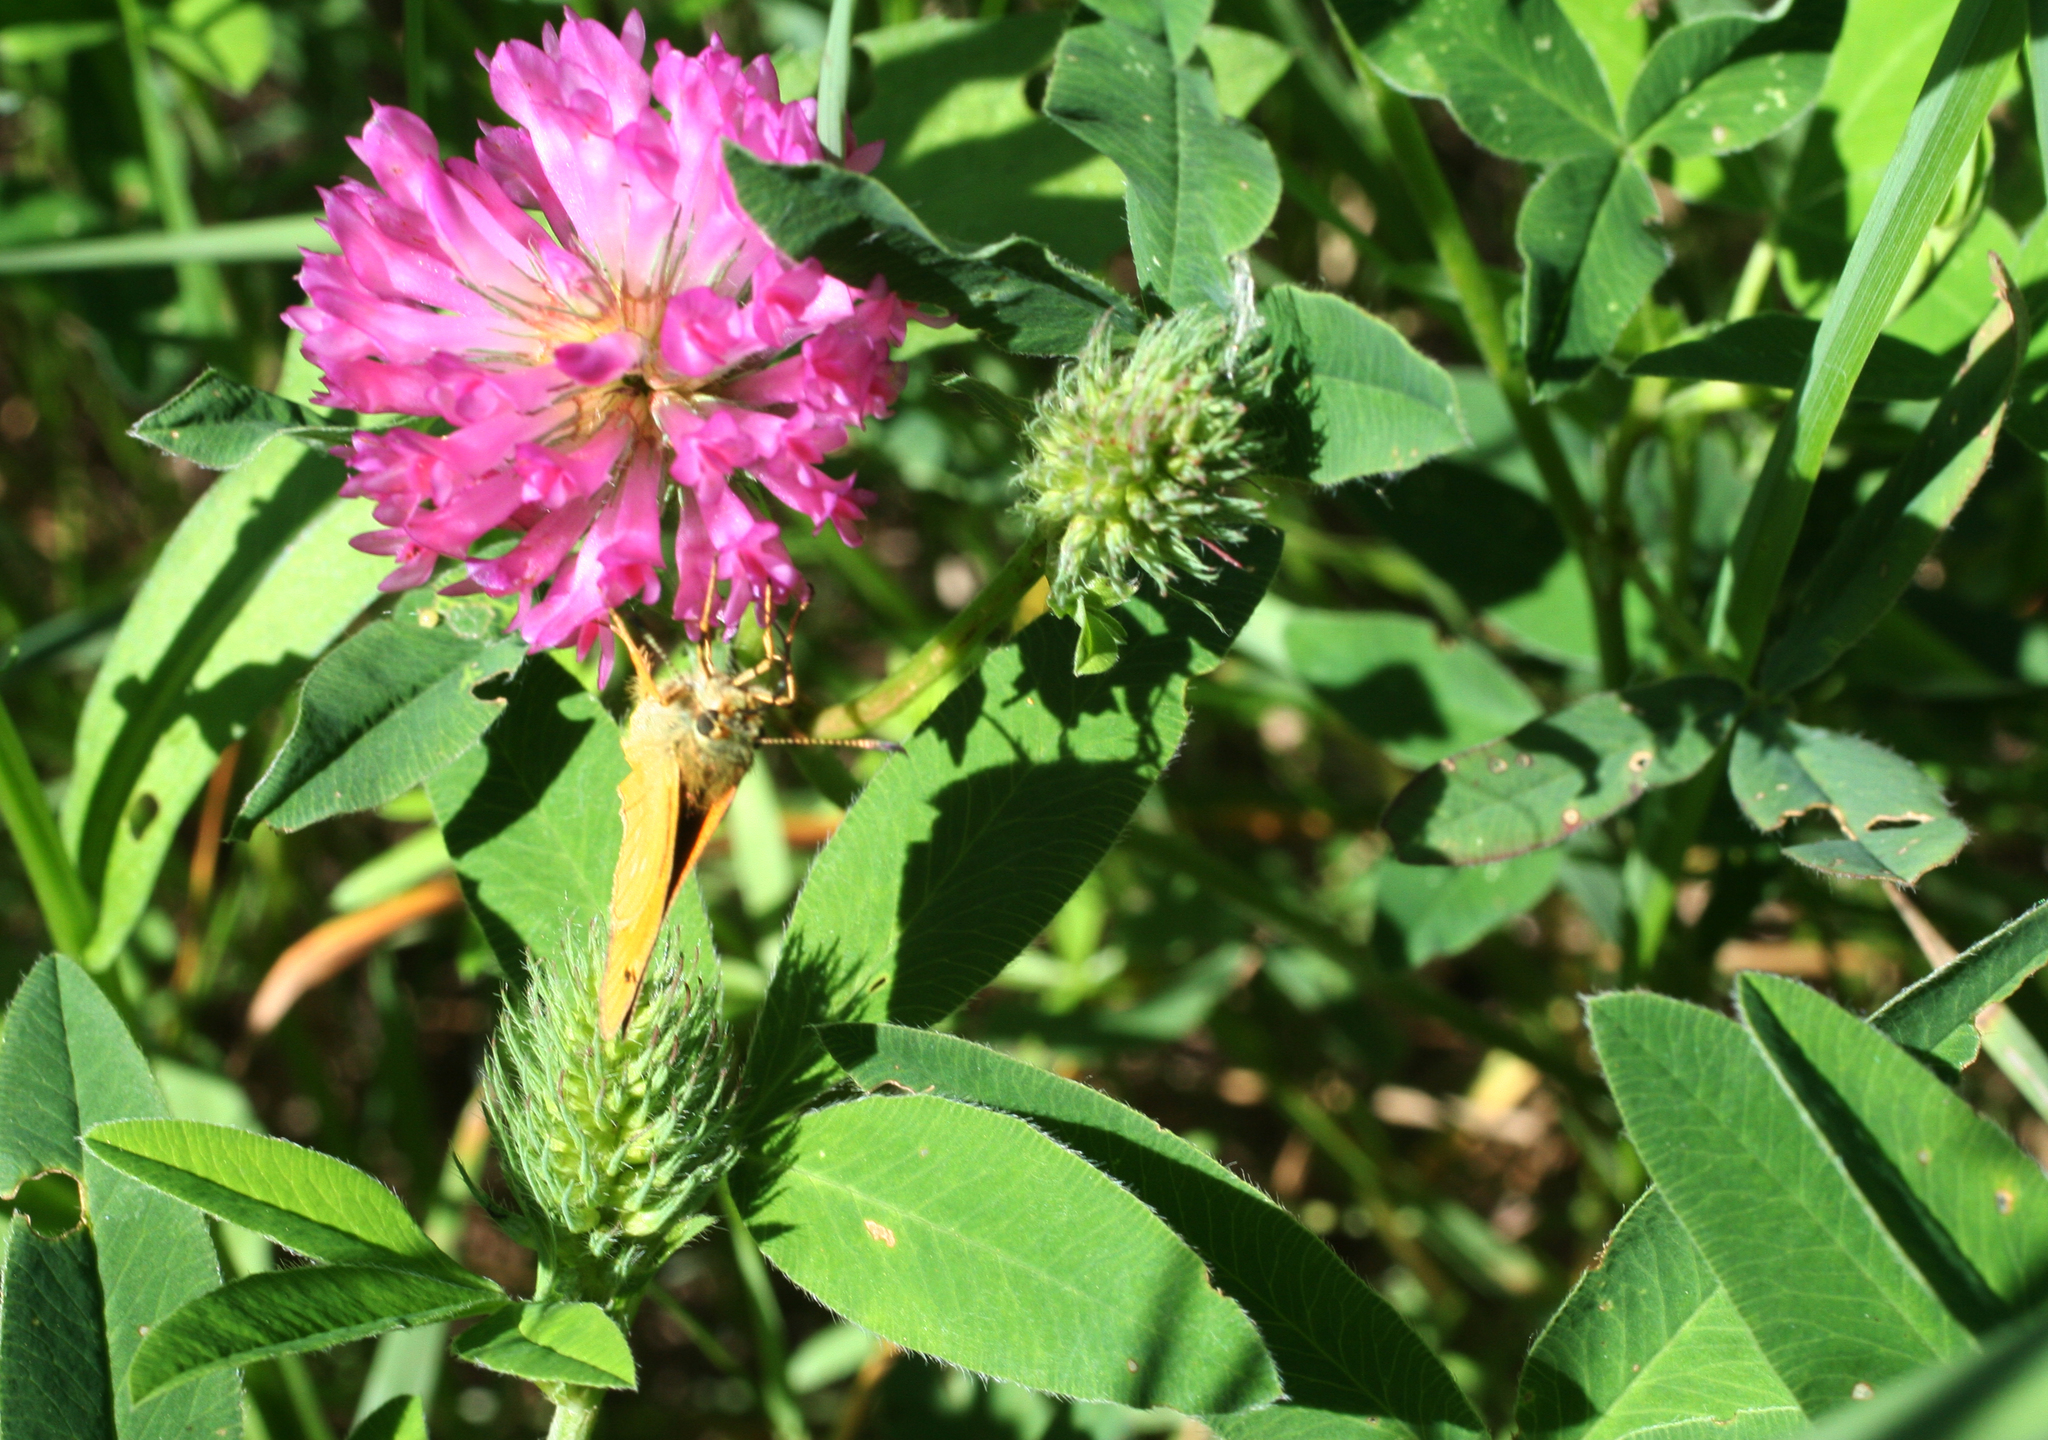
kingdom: Plantae
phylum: Tracheophyta
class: Magnoliopsida
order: Fabales
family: Fabaceae
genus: Trifolium
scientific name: Trifolium medium
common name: Zigzag clover
